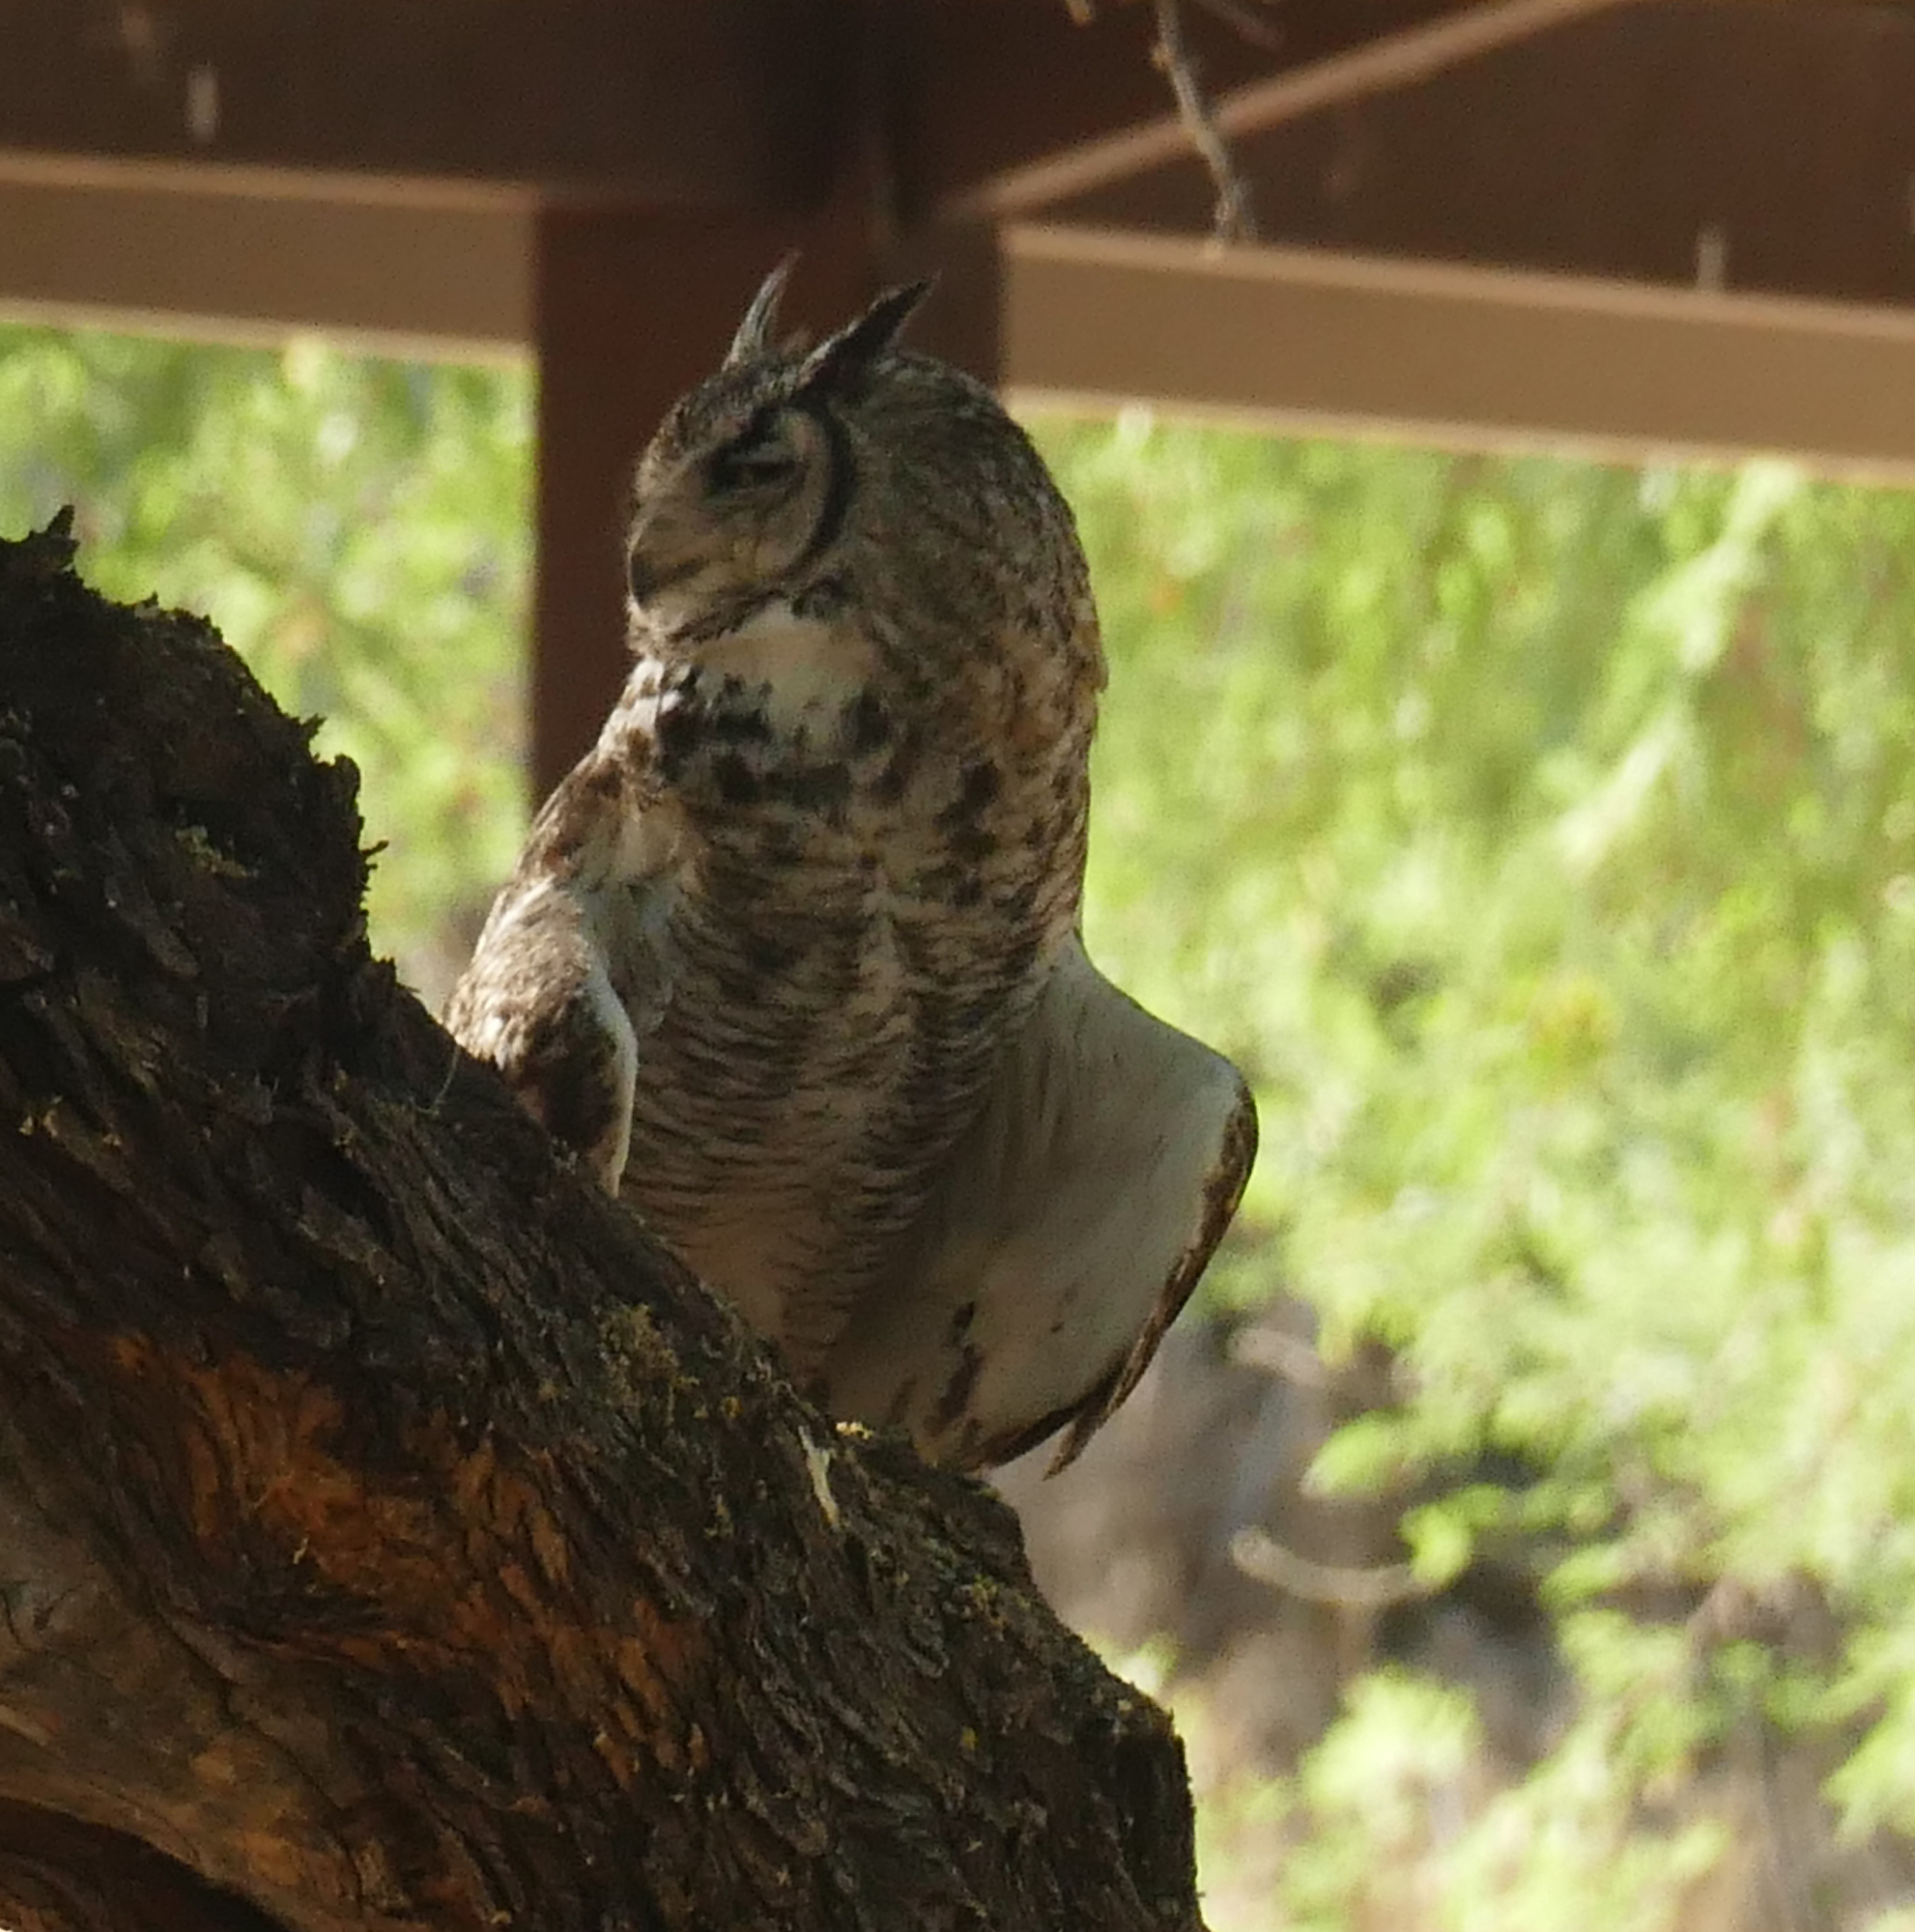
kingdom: Animalia
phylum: Chordata
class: Aves
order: Strigiformes
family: Strigidae
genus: Bubo
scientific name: Bubo virginianus
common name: Great horned owl
